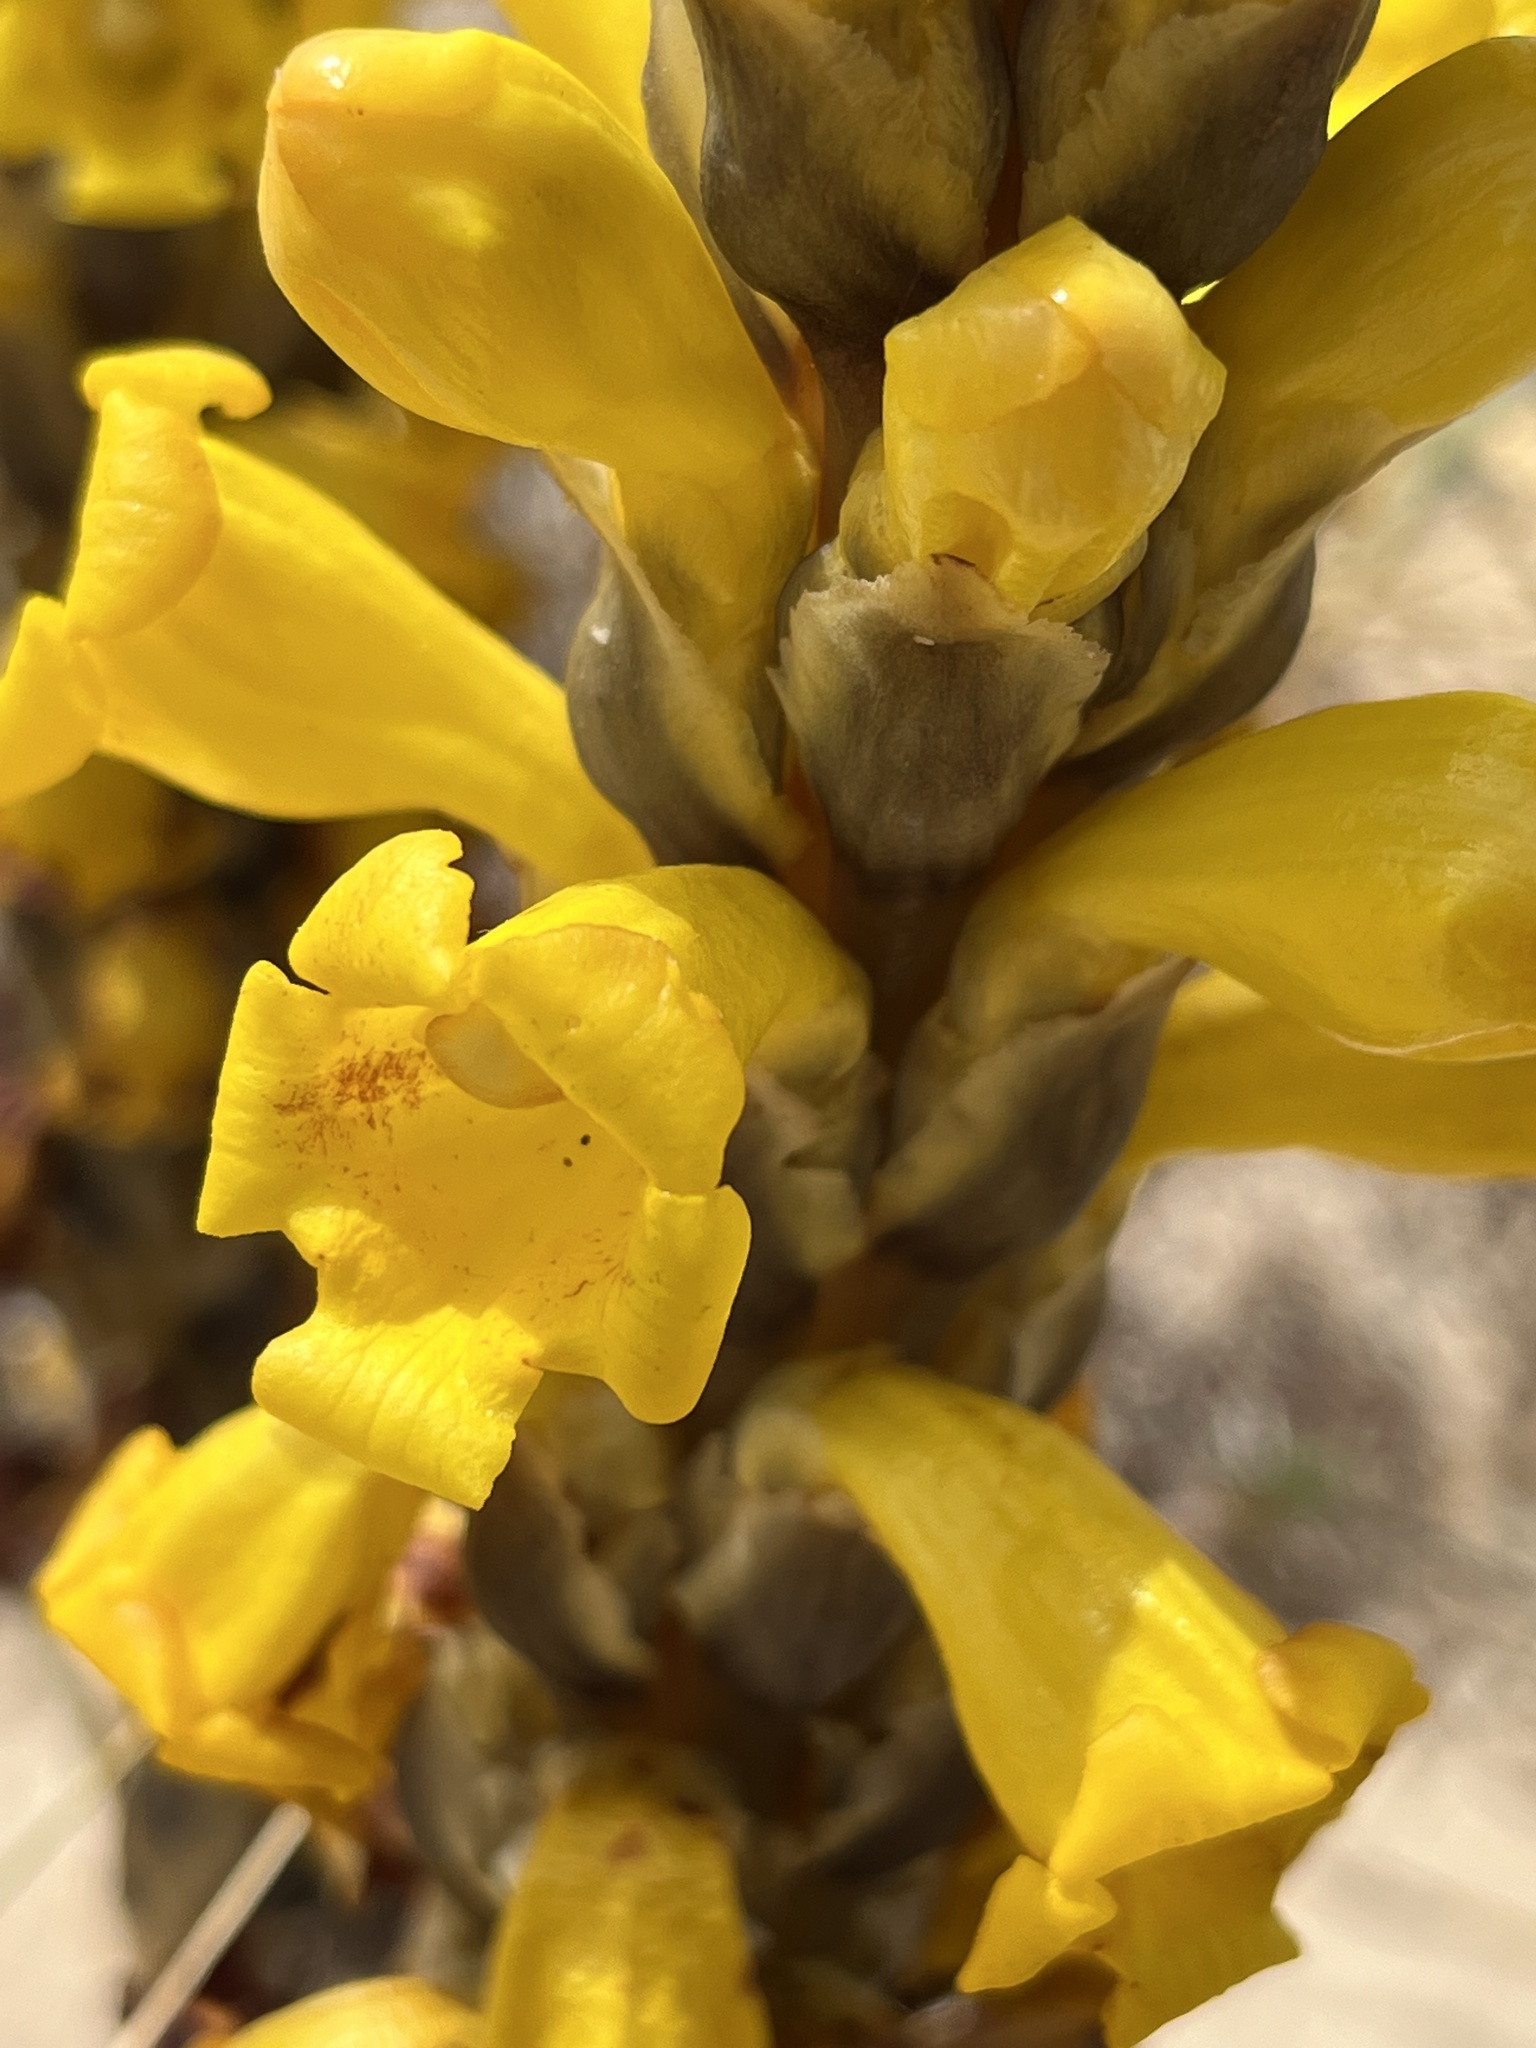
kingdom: Plantae
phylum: Tracheophyta
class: Magnoliopsida
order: Lamiales
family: Orobanchaceae
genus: Cistanche
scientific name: Cistanche phelypaea
